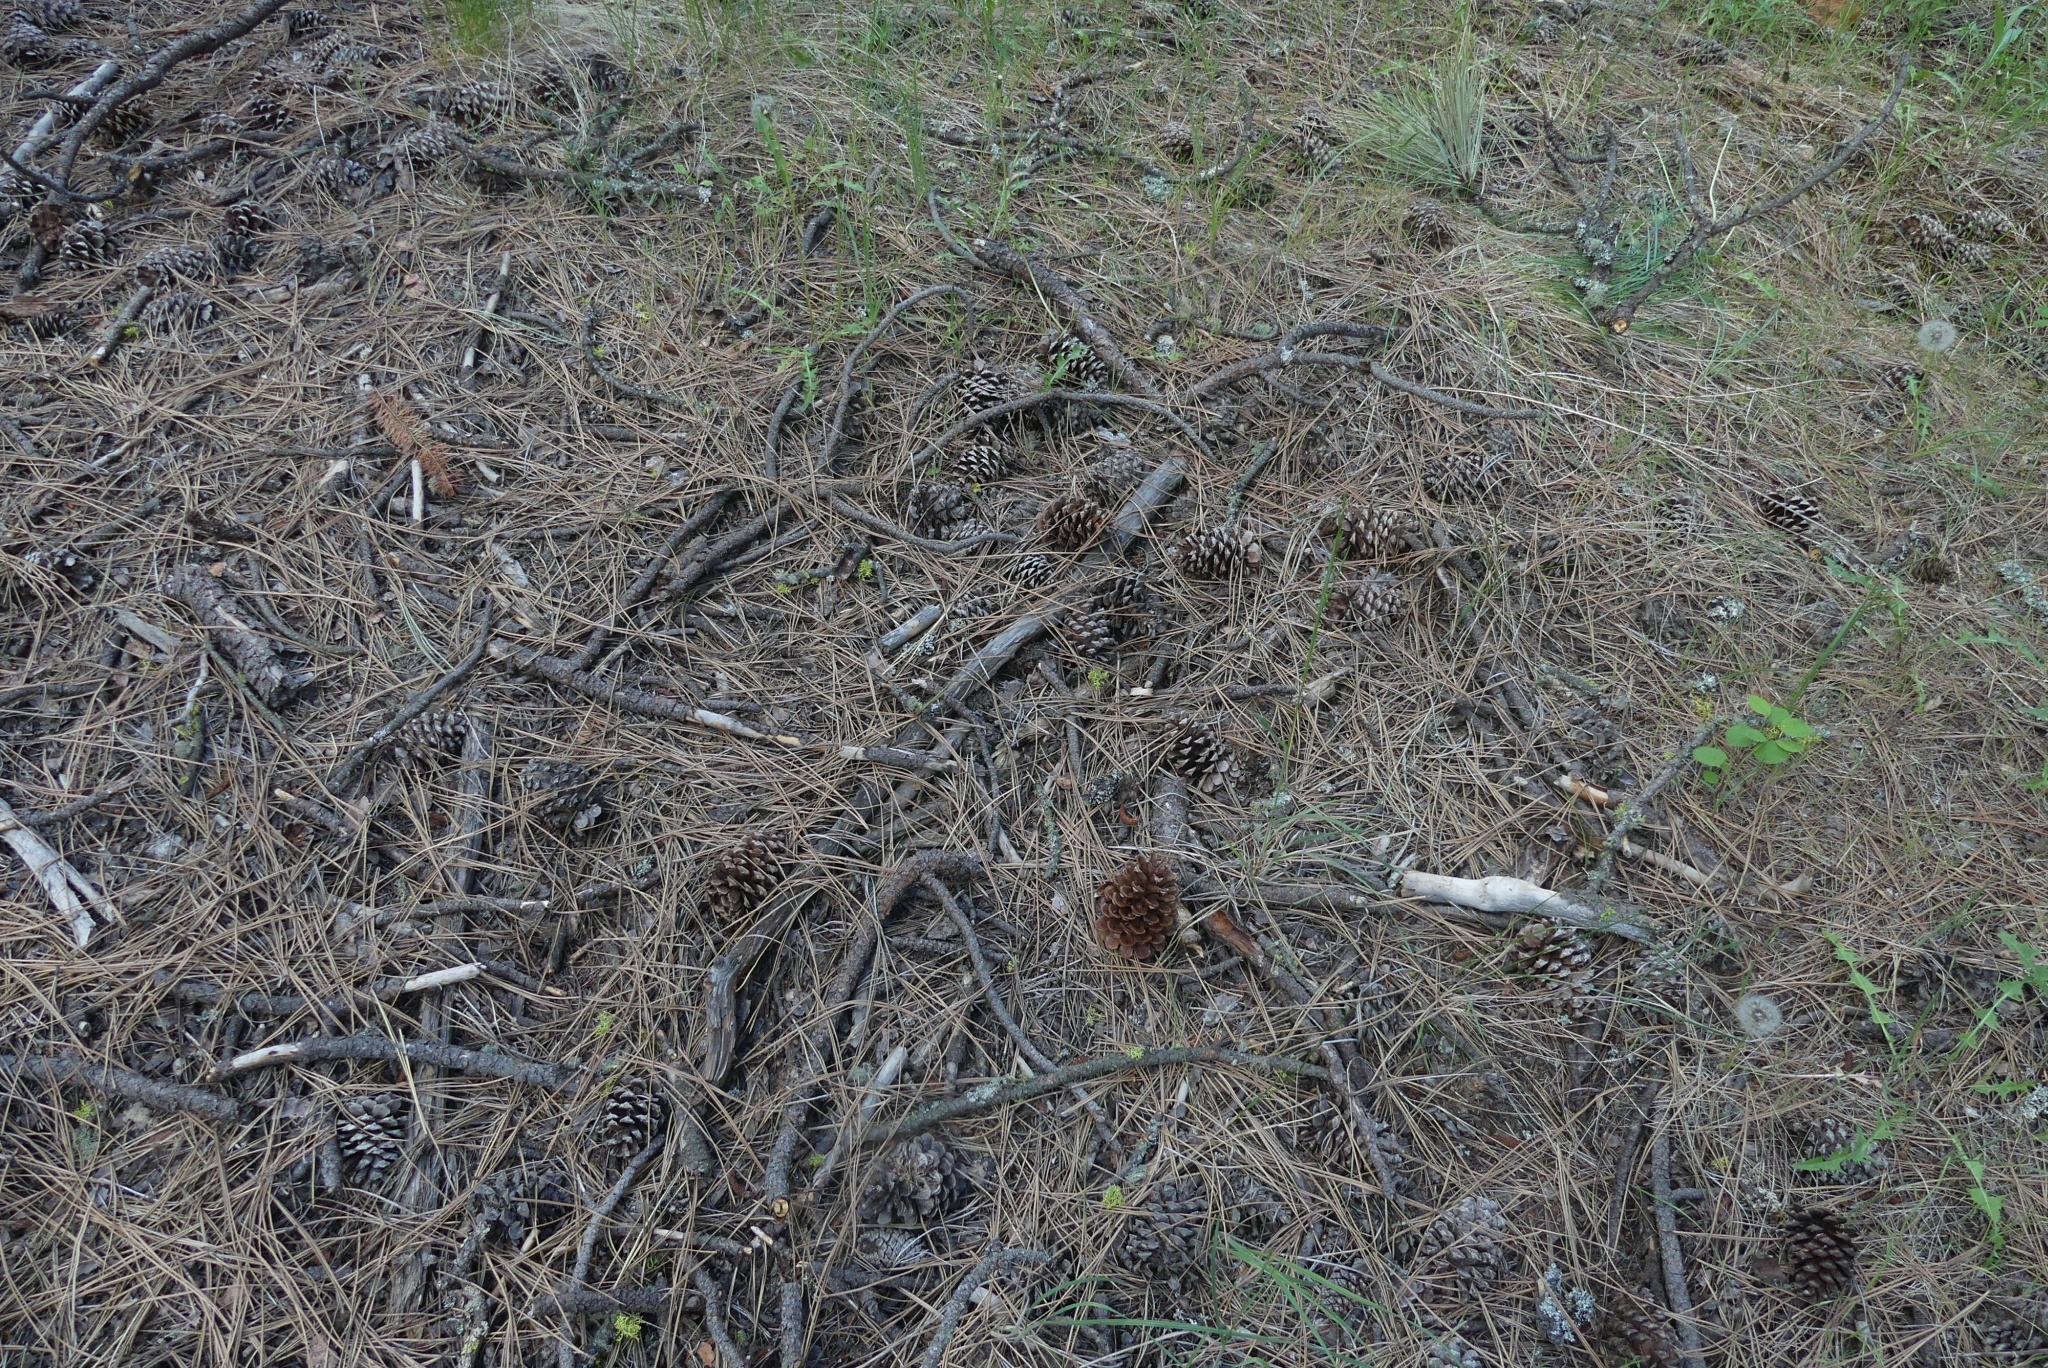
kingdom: Plantae
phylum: Tracheophyta
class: Pinopsida
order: Pinales
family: Pinaceae
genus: Pinus
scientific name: Pinus ponderosa
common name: Western yellow-pine
